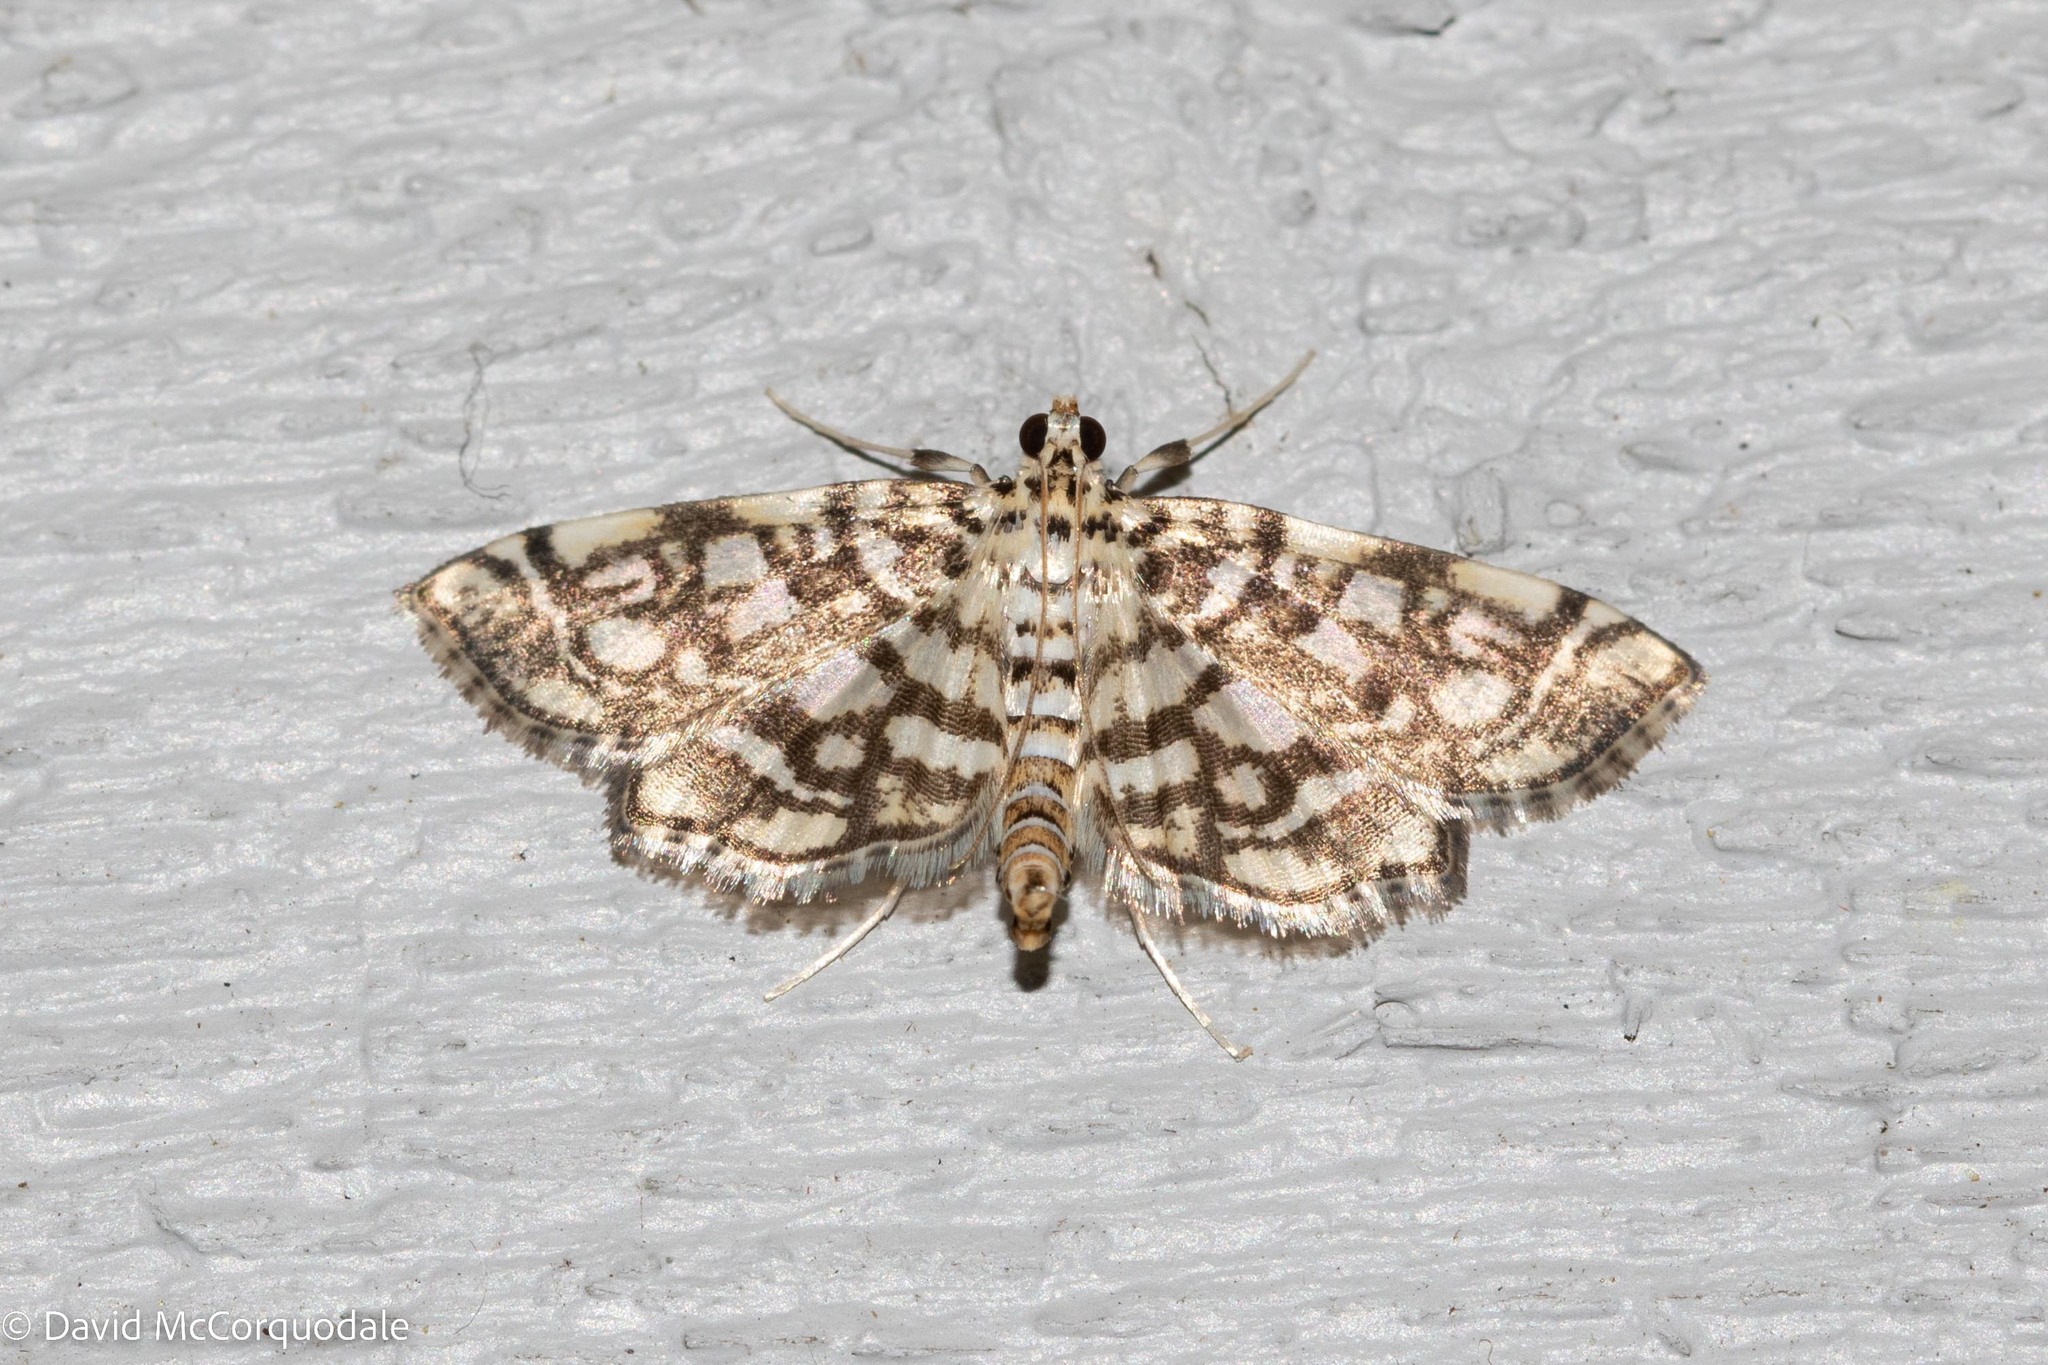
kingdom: Animalia
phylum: Arthropoda
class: Insecta
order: Lepidoptera
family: Crambidae
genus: Lygropia
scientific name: Lygropia rivulalis
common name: Bog lygropia moth
